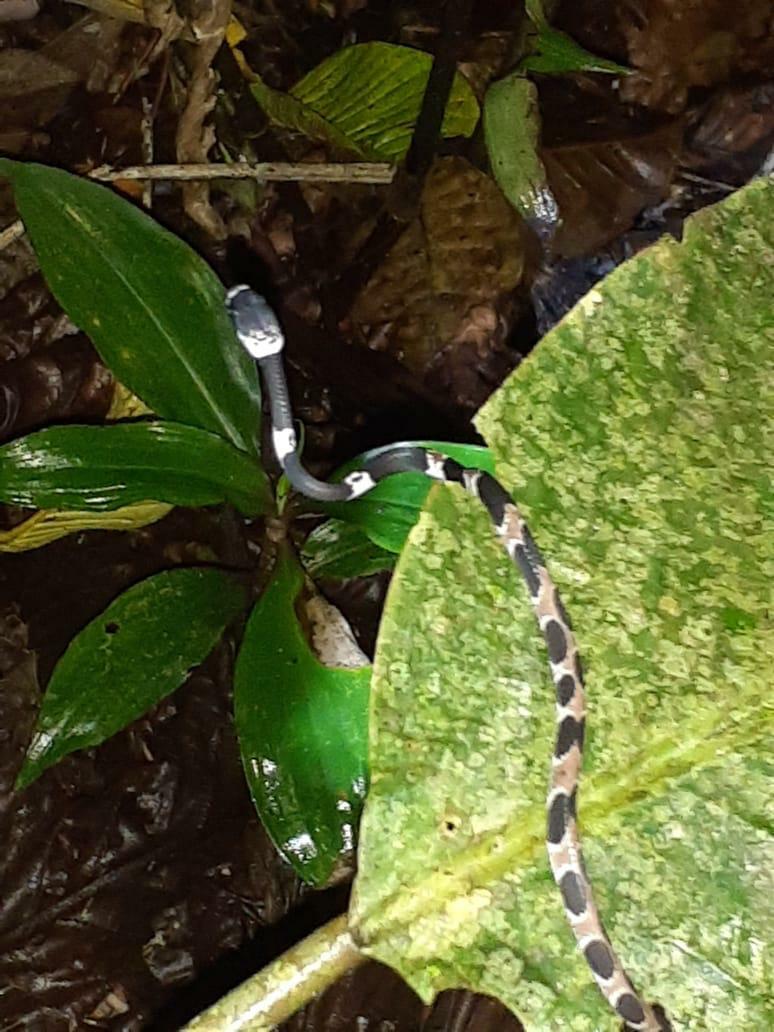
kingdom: Animalia
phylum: Chordata
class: Squamata
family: Colubridae
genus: Dipsas
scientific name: Dipsas catesbyi
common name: Catesby's snail-eater
